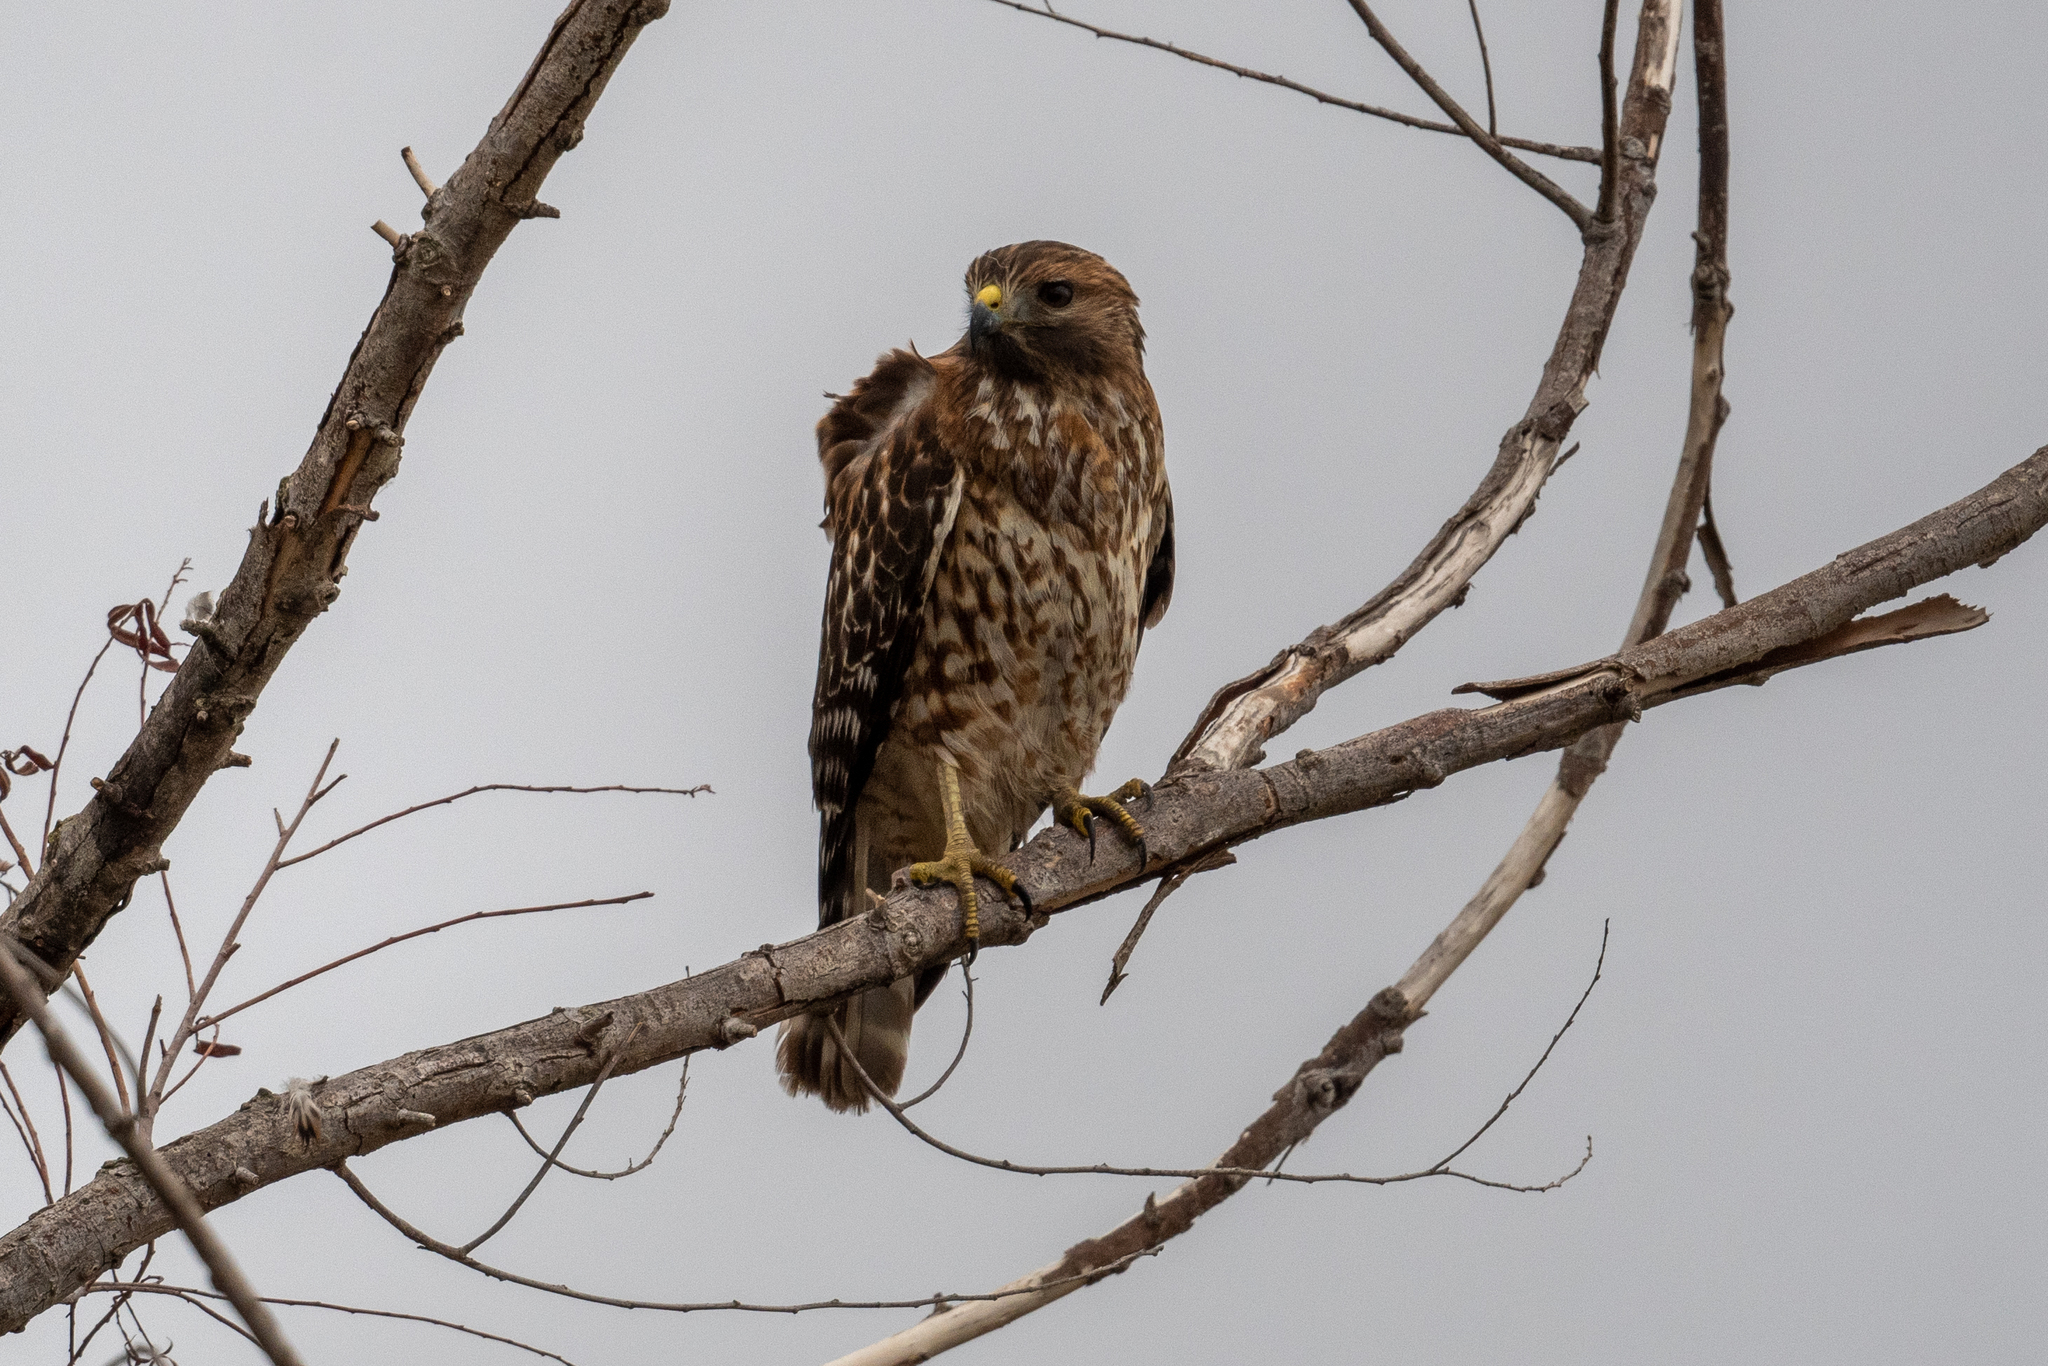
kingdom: Animalia
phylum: Chordata
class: Aves
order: Accipitriformes
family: Accipitridae
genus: Buteo
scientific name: Buteo lineatus
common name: Red-shouldered hawk
